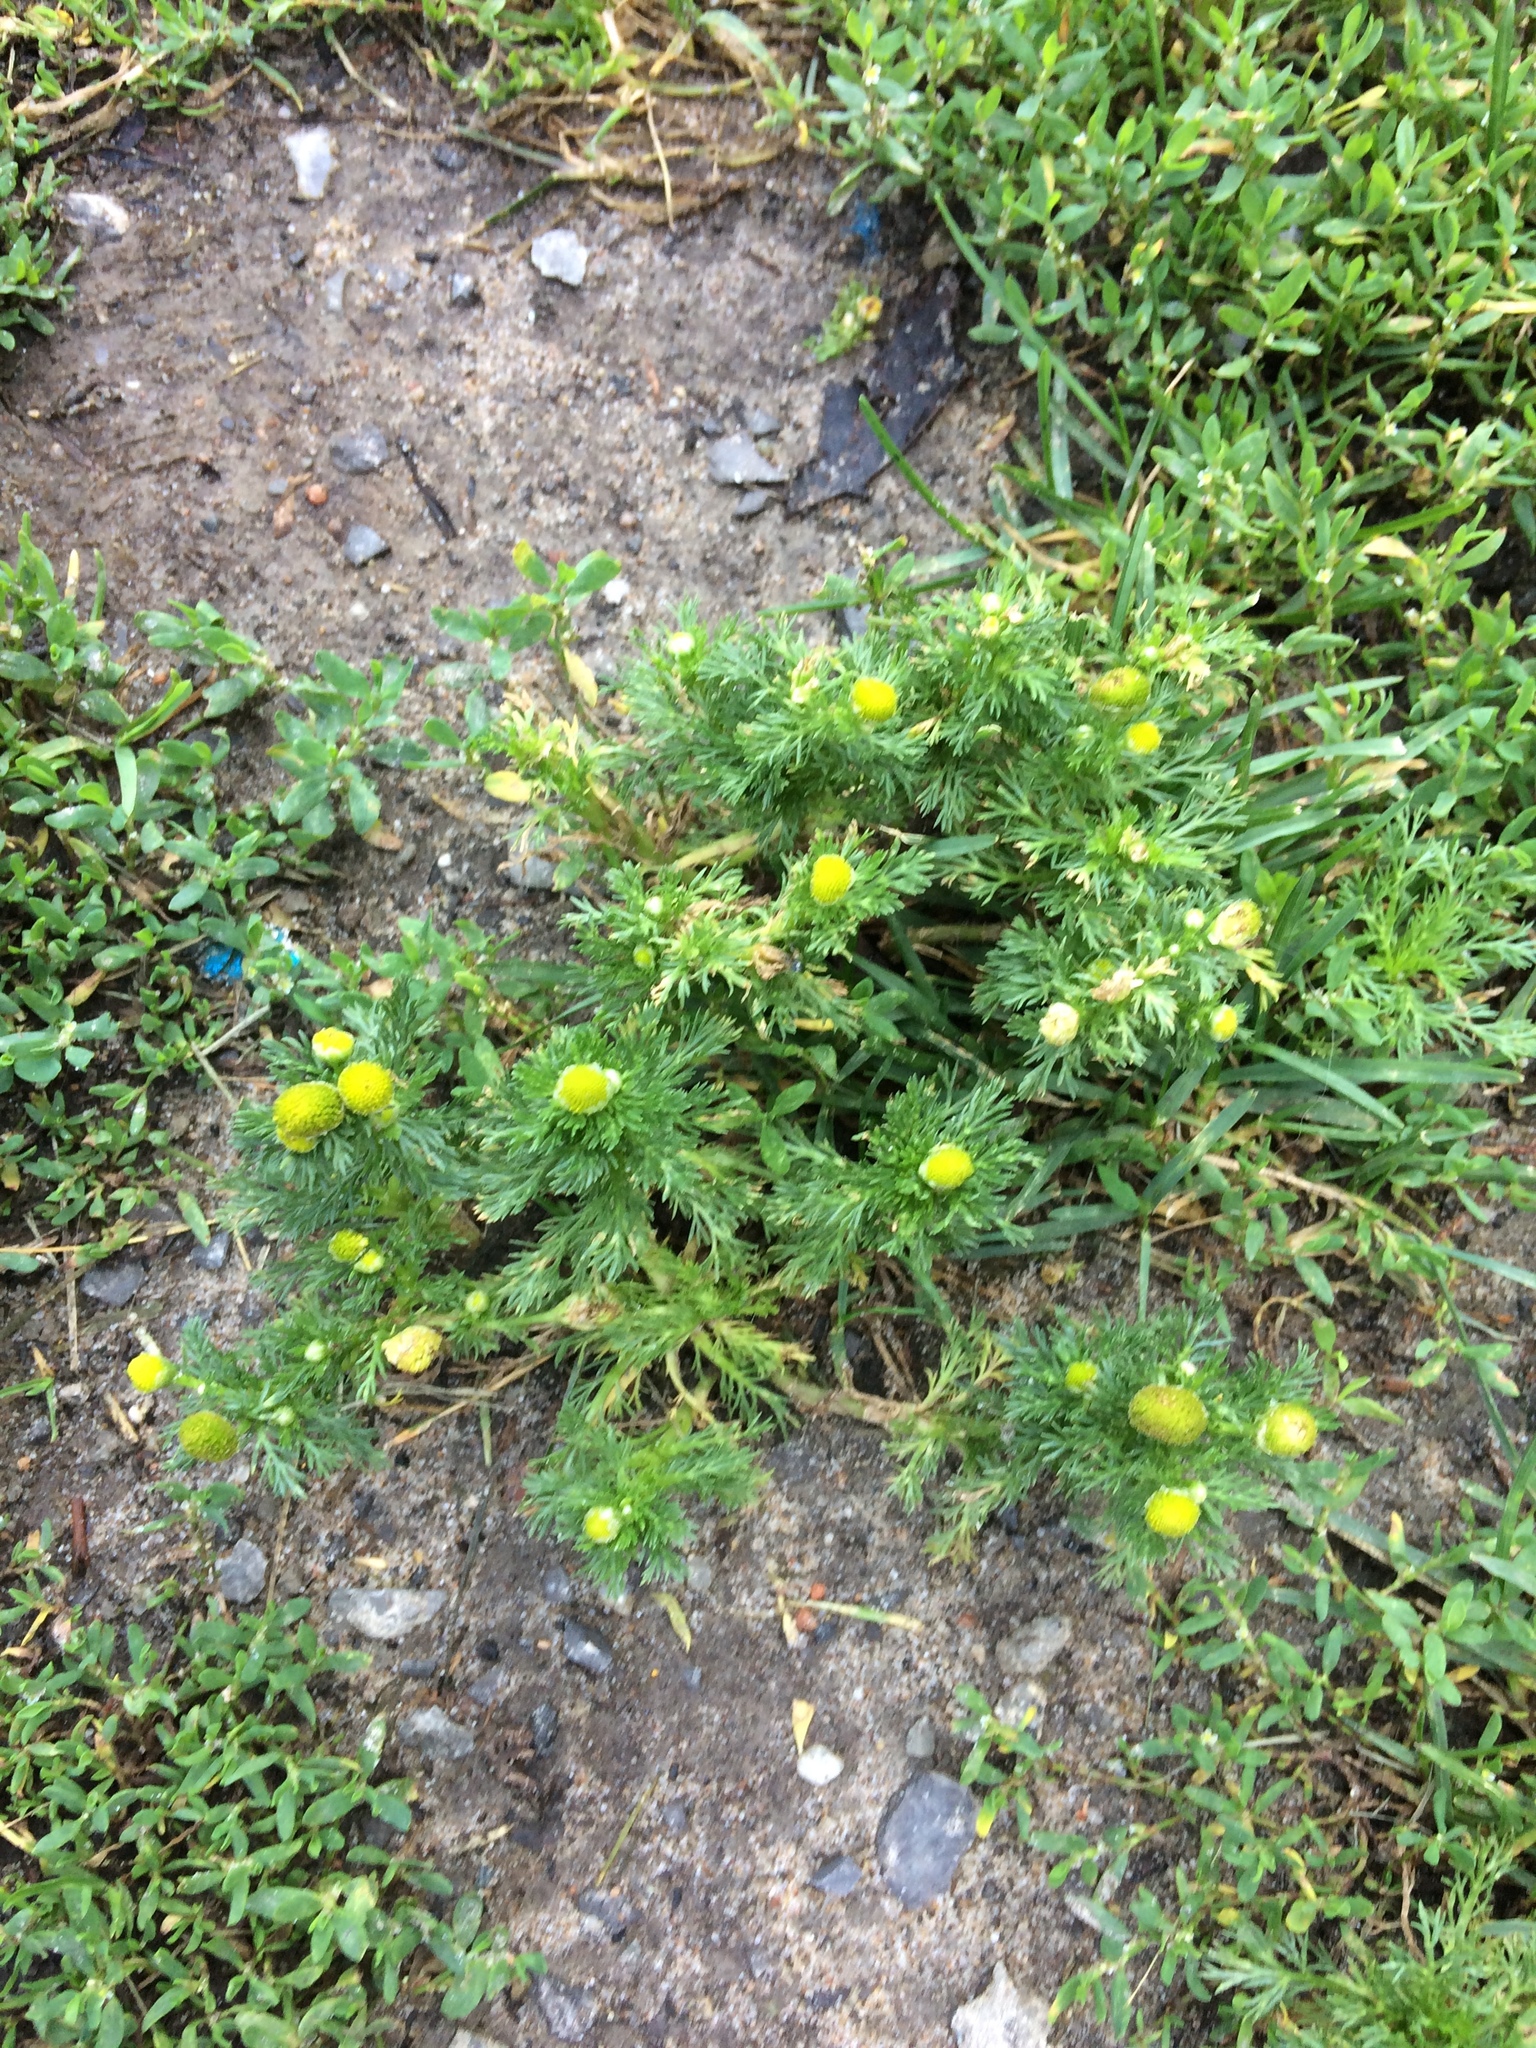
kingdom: Plantae
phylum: Tracheophyta
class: Magnoliopsida
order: Asterales
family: Asteraceae
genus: Matricaria
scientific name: Matricaria discoidea
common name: Disc mayweed
